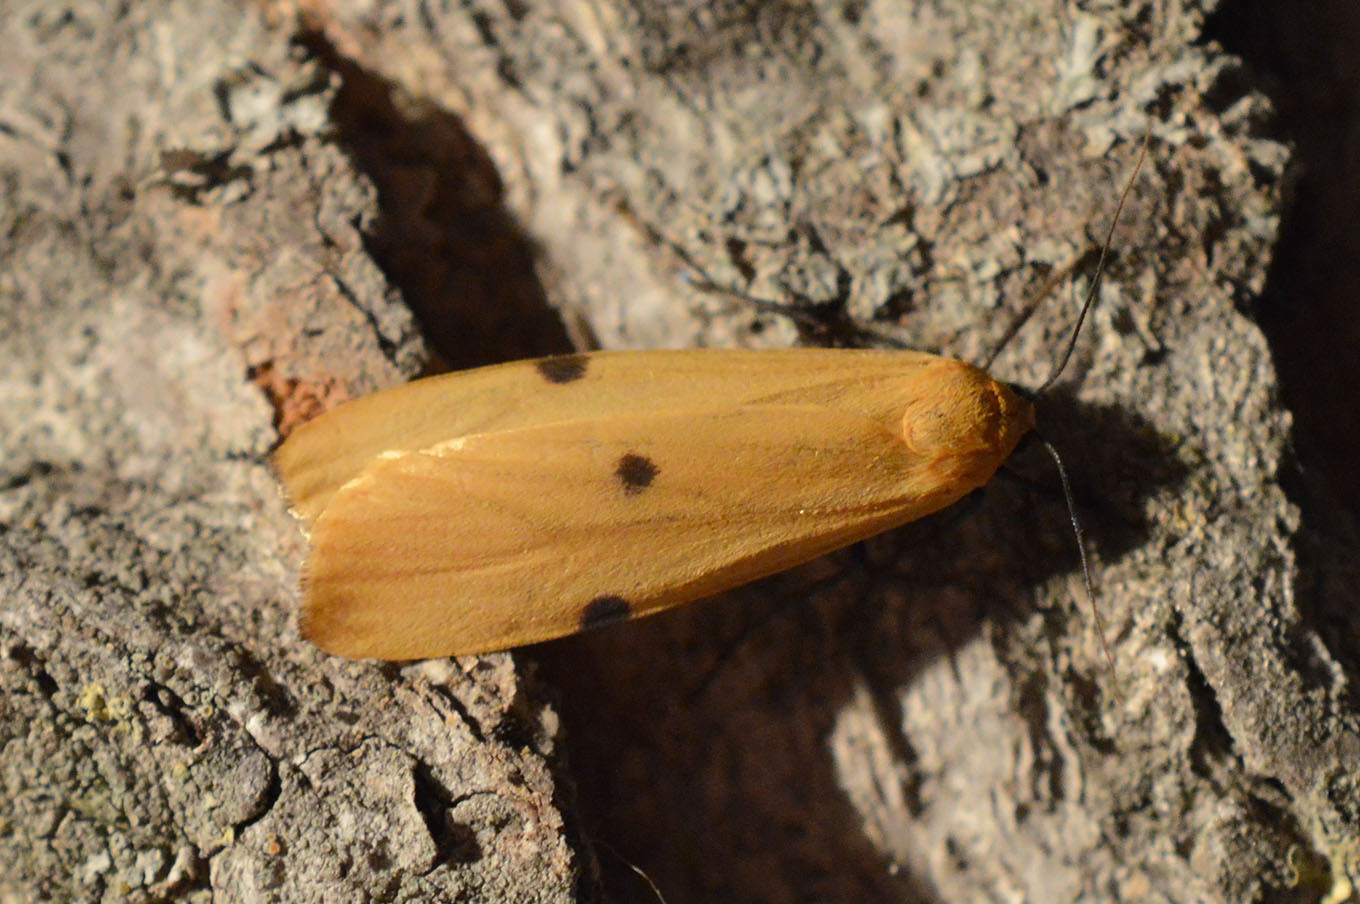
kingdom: Animalia
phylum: Arthropoda
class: Insecta
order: Lepidoptera
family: Erebidae
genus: Lithosia
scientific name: Lithosia quadra
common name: Four-spotted footman
